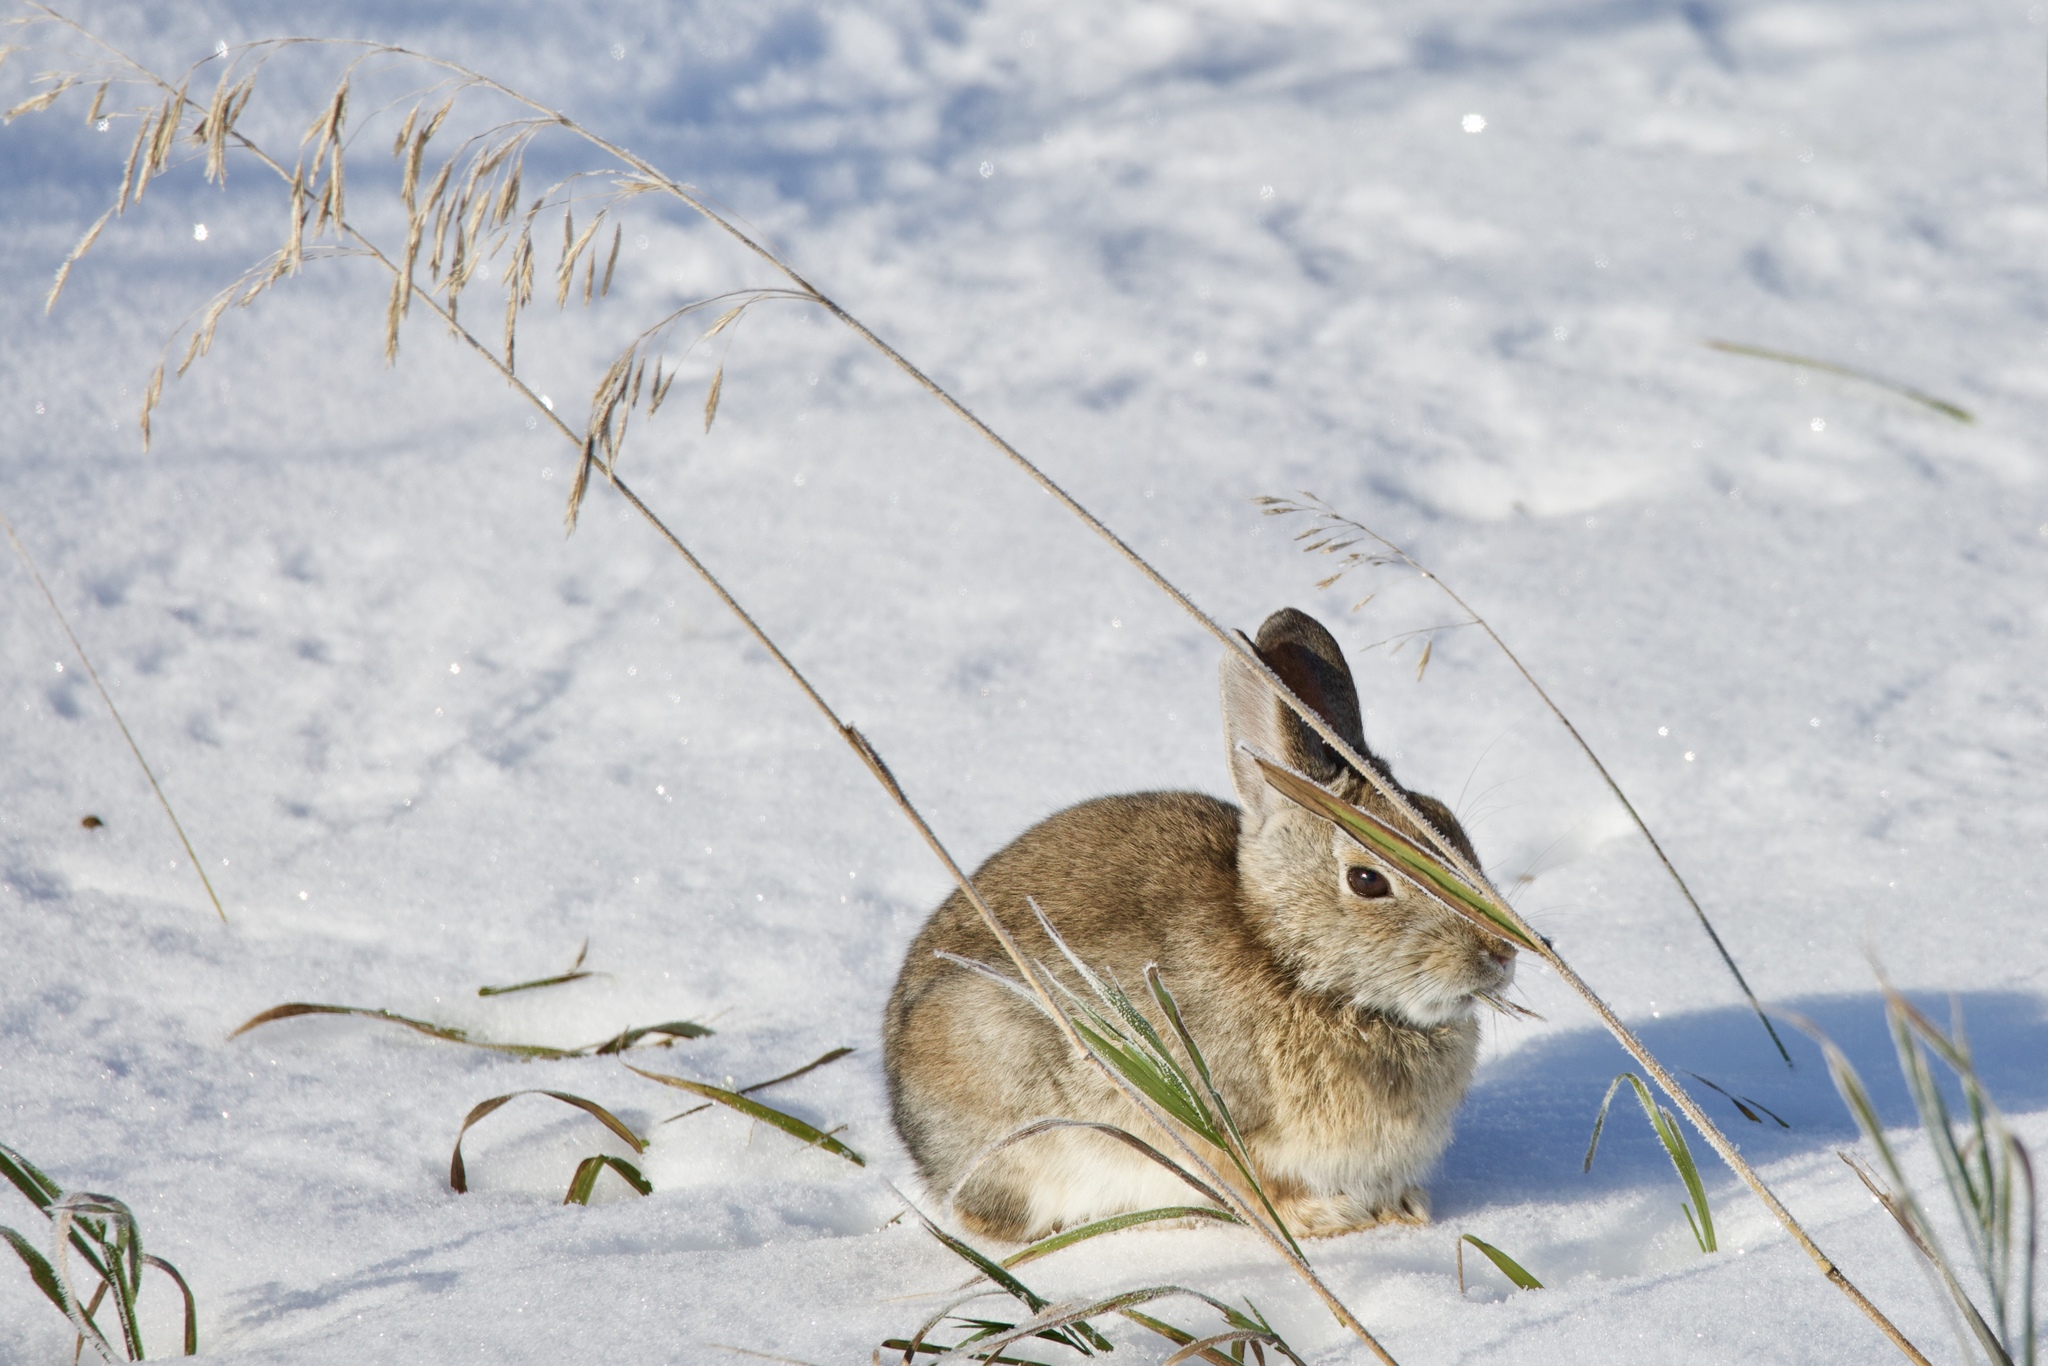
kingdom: Animalia
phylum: Chordata
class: Mammalia
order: Lagomorpha
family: Leporidae
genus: Sylvilagus
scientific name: Sylvilagus nuttallii
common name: Mountain cottontail
